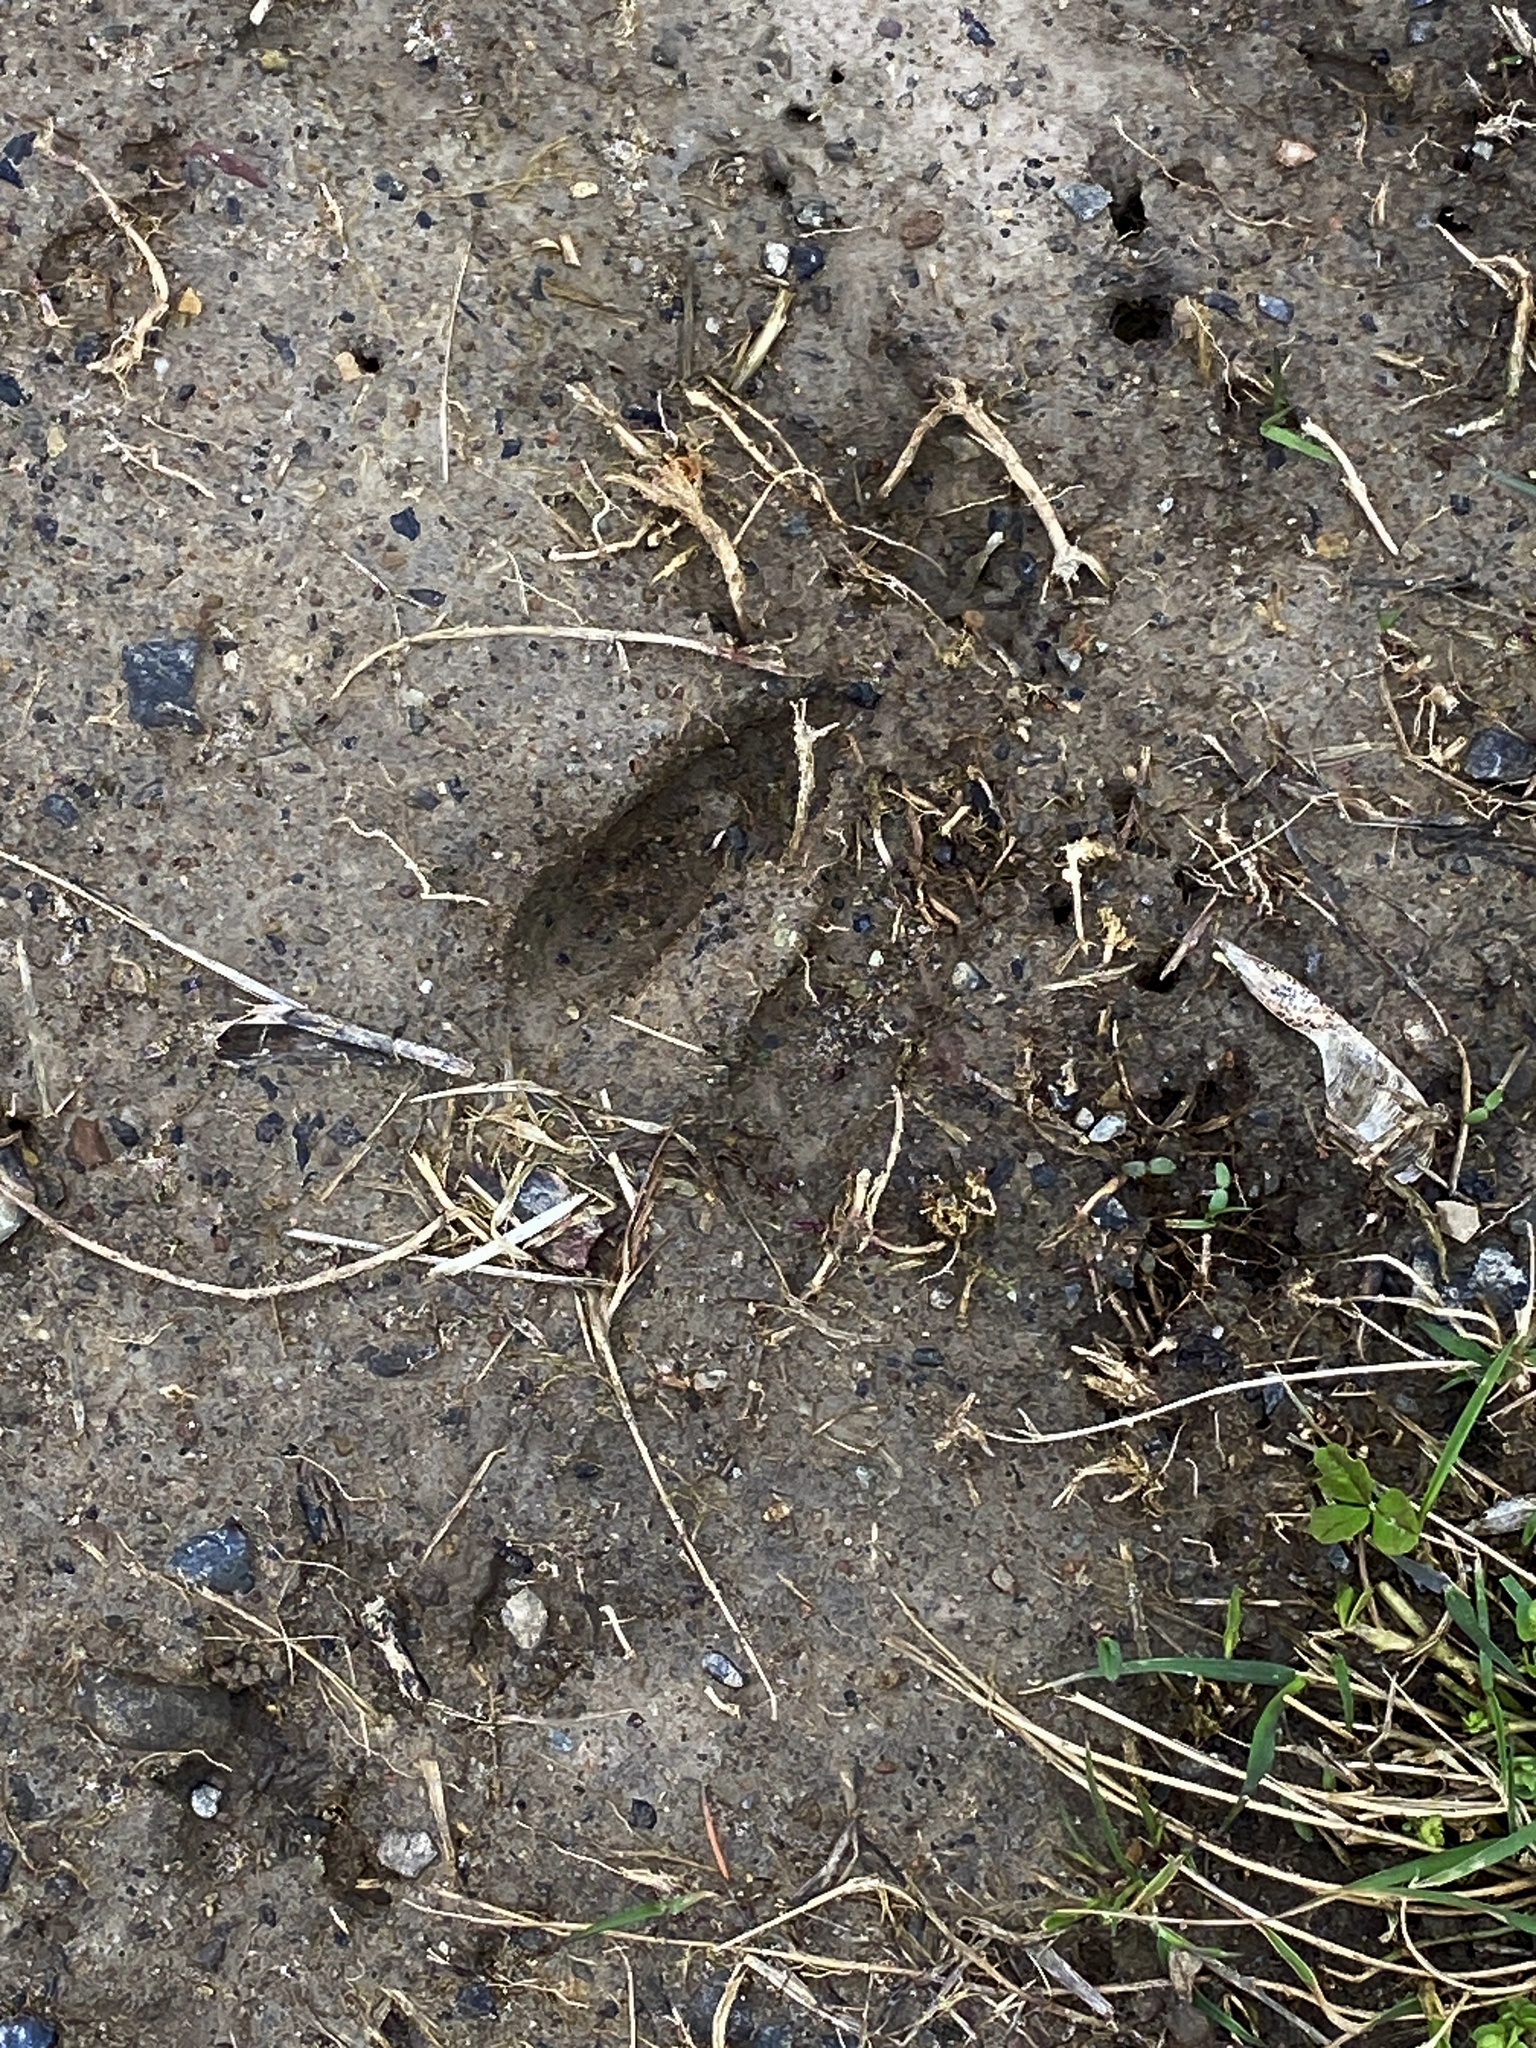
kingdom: Animalia
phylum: Chordata
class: Mammalia
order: Artiodactyla
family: Cervidae
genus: Odocoileus
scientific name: Odocoileus virginianus
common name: White-tailed deer
